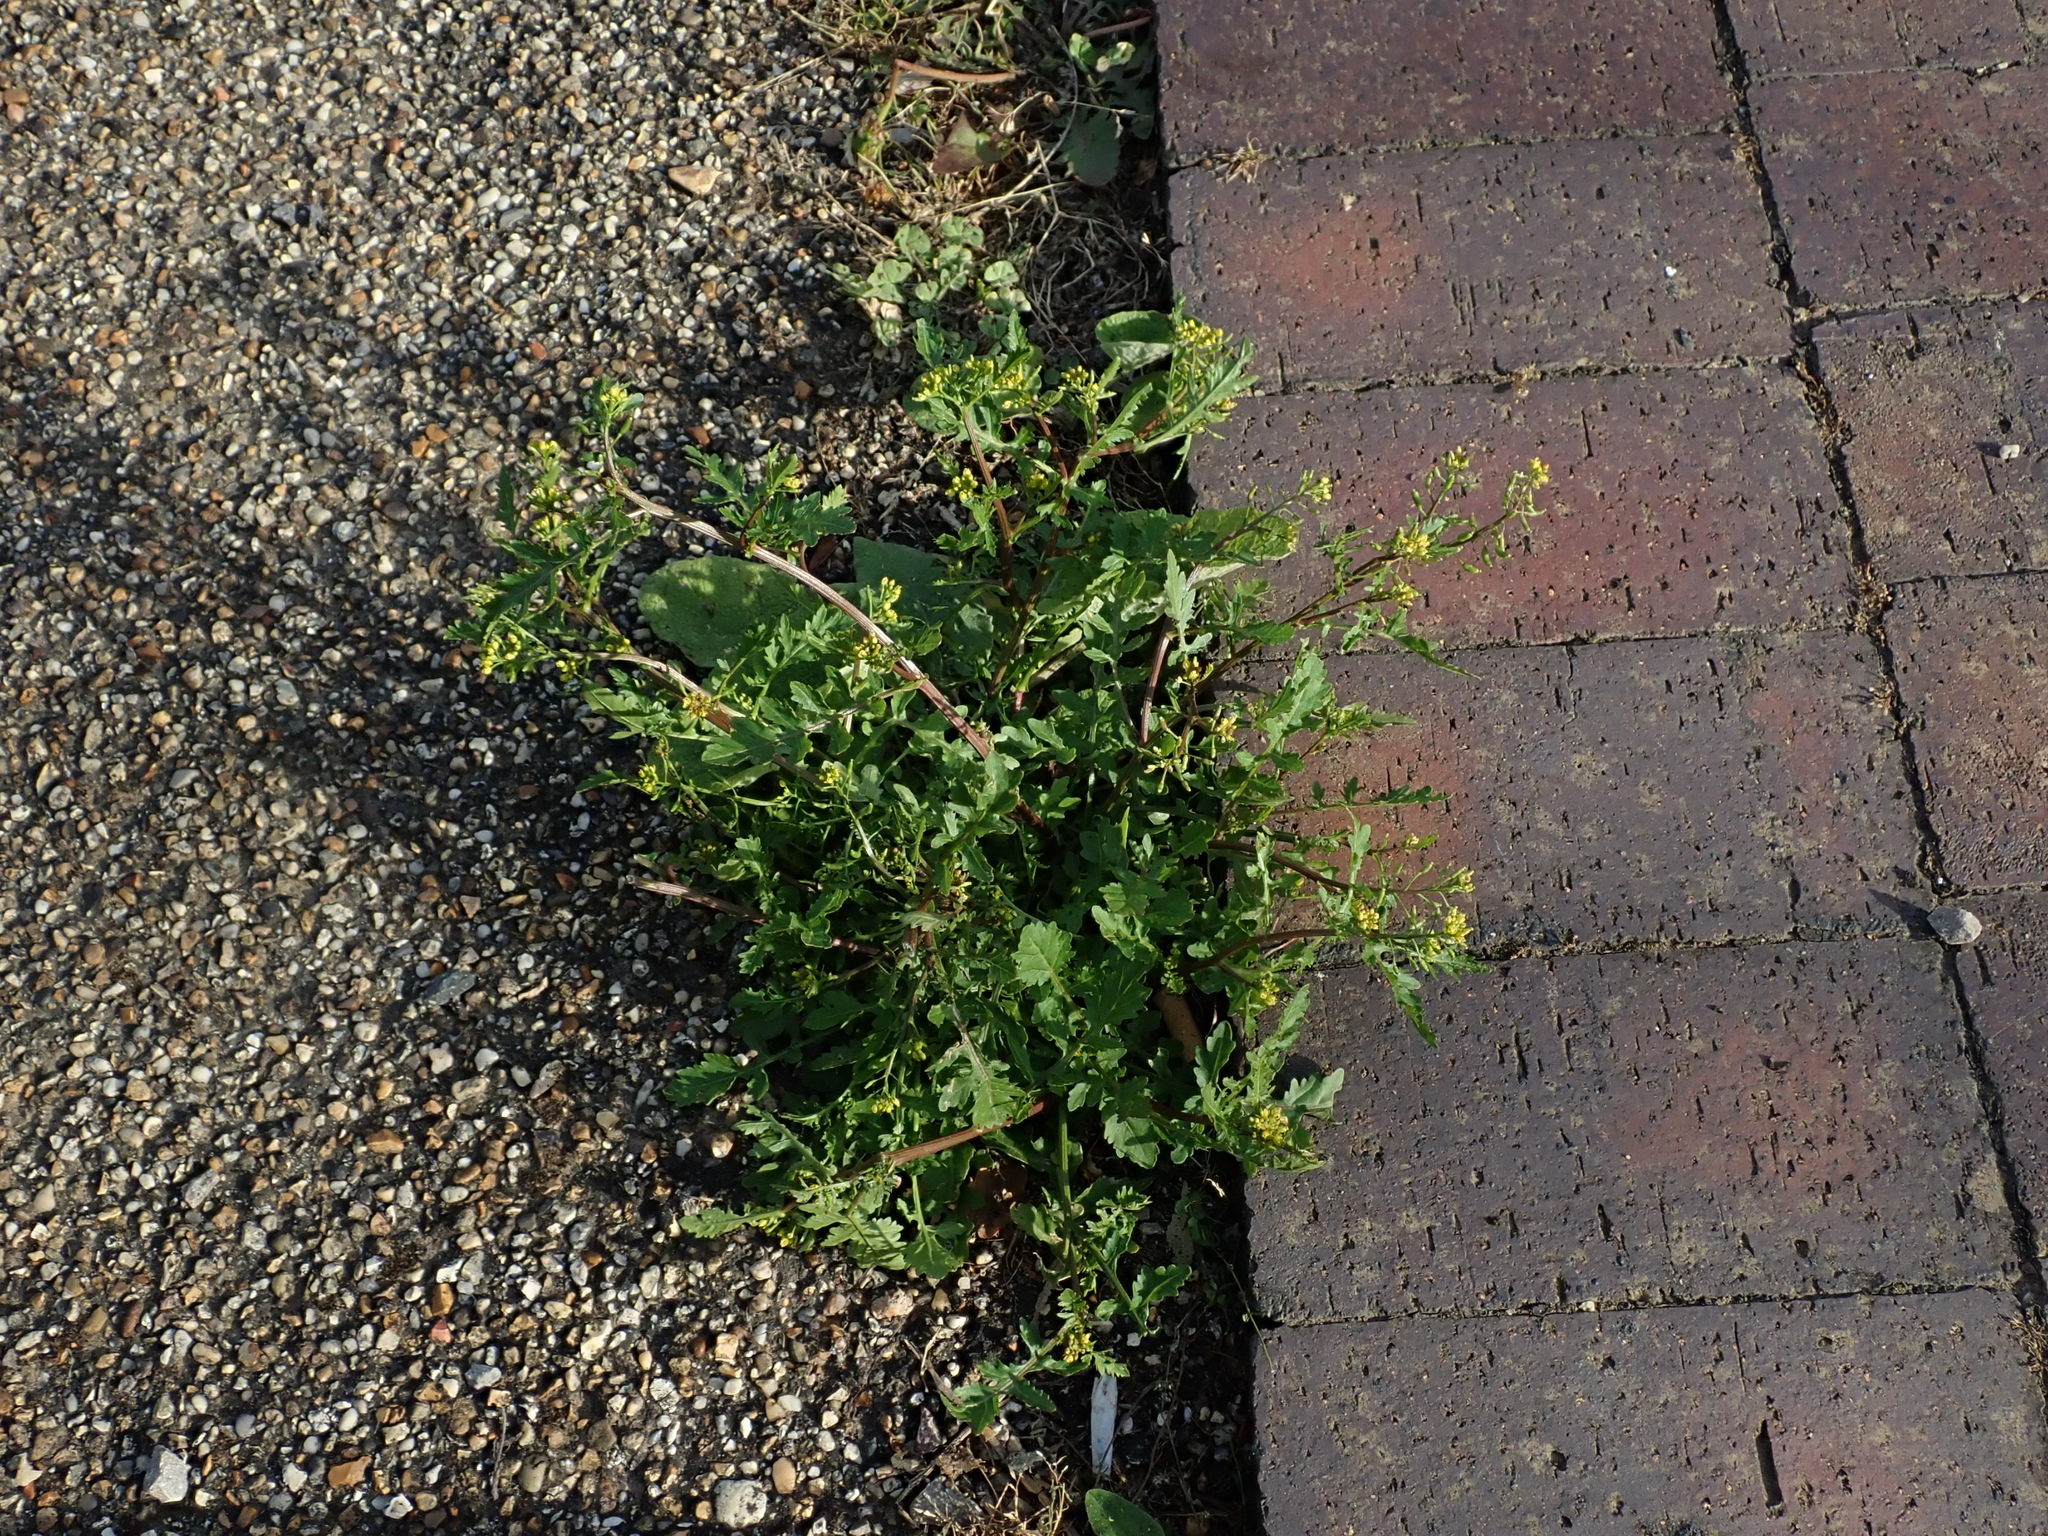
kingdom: Plantae
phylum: Tracheophyta
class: Magnoliopsida
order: Brassicales
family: Brassicaceae
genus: Rorippa
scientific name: Rorippa palustris
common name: Marsh yellow-cress
